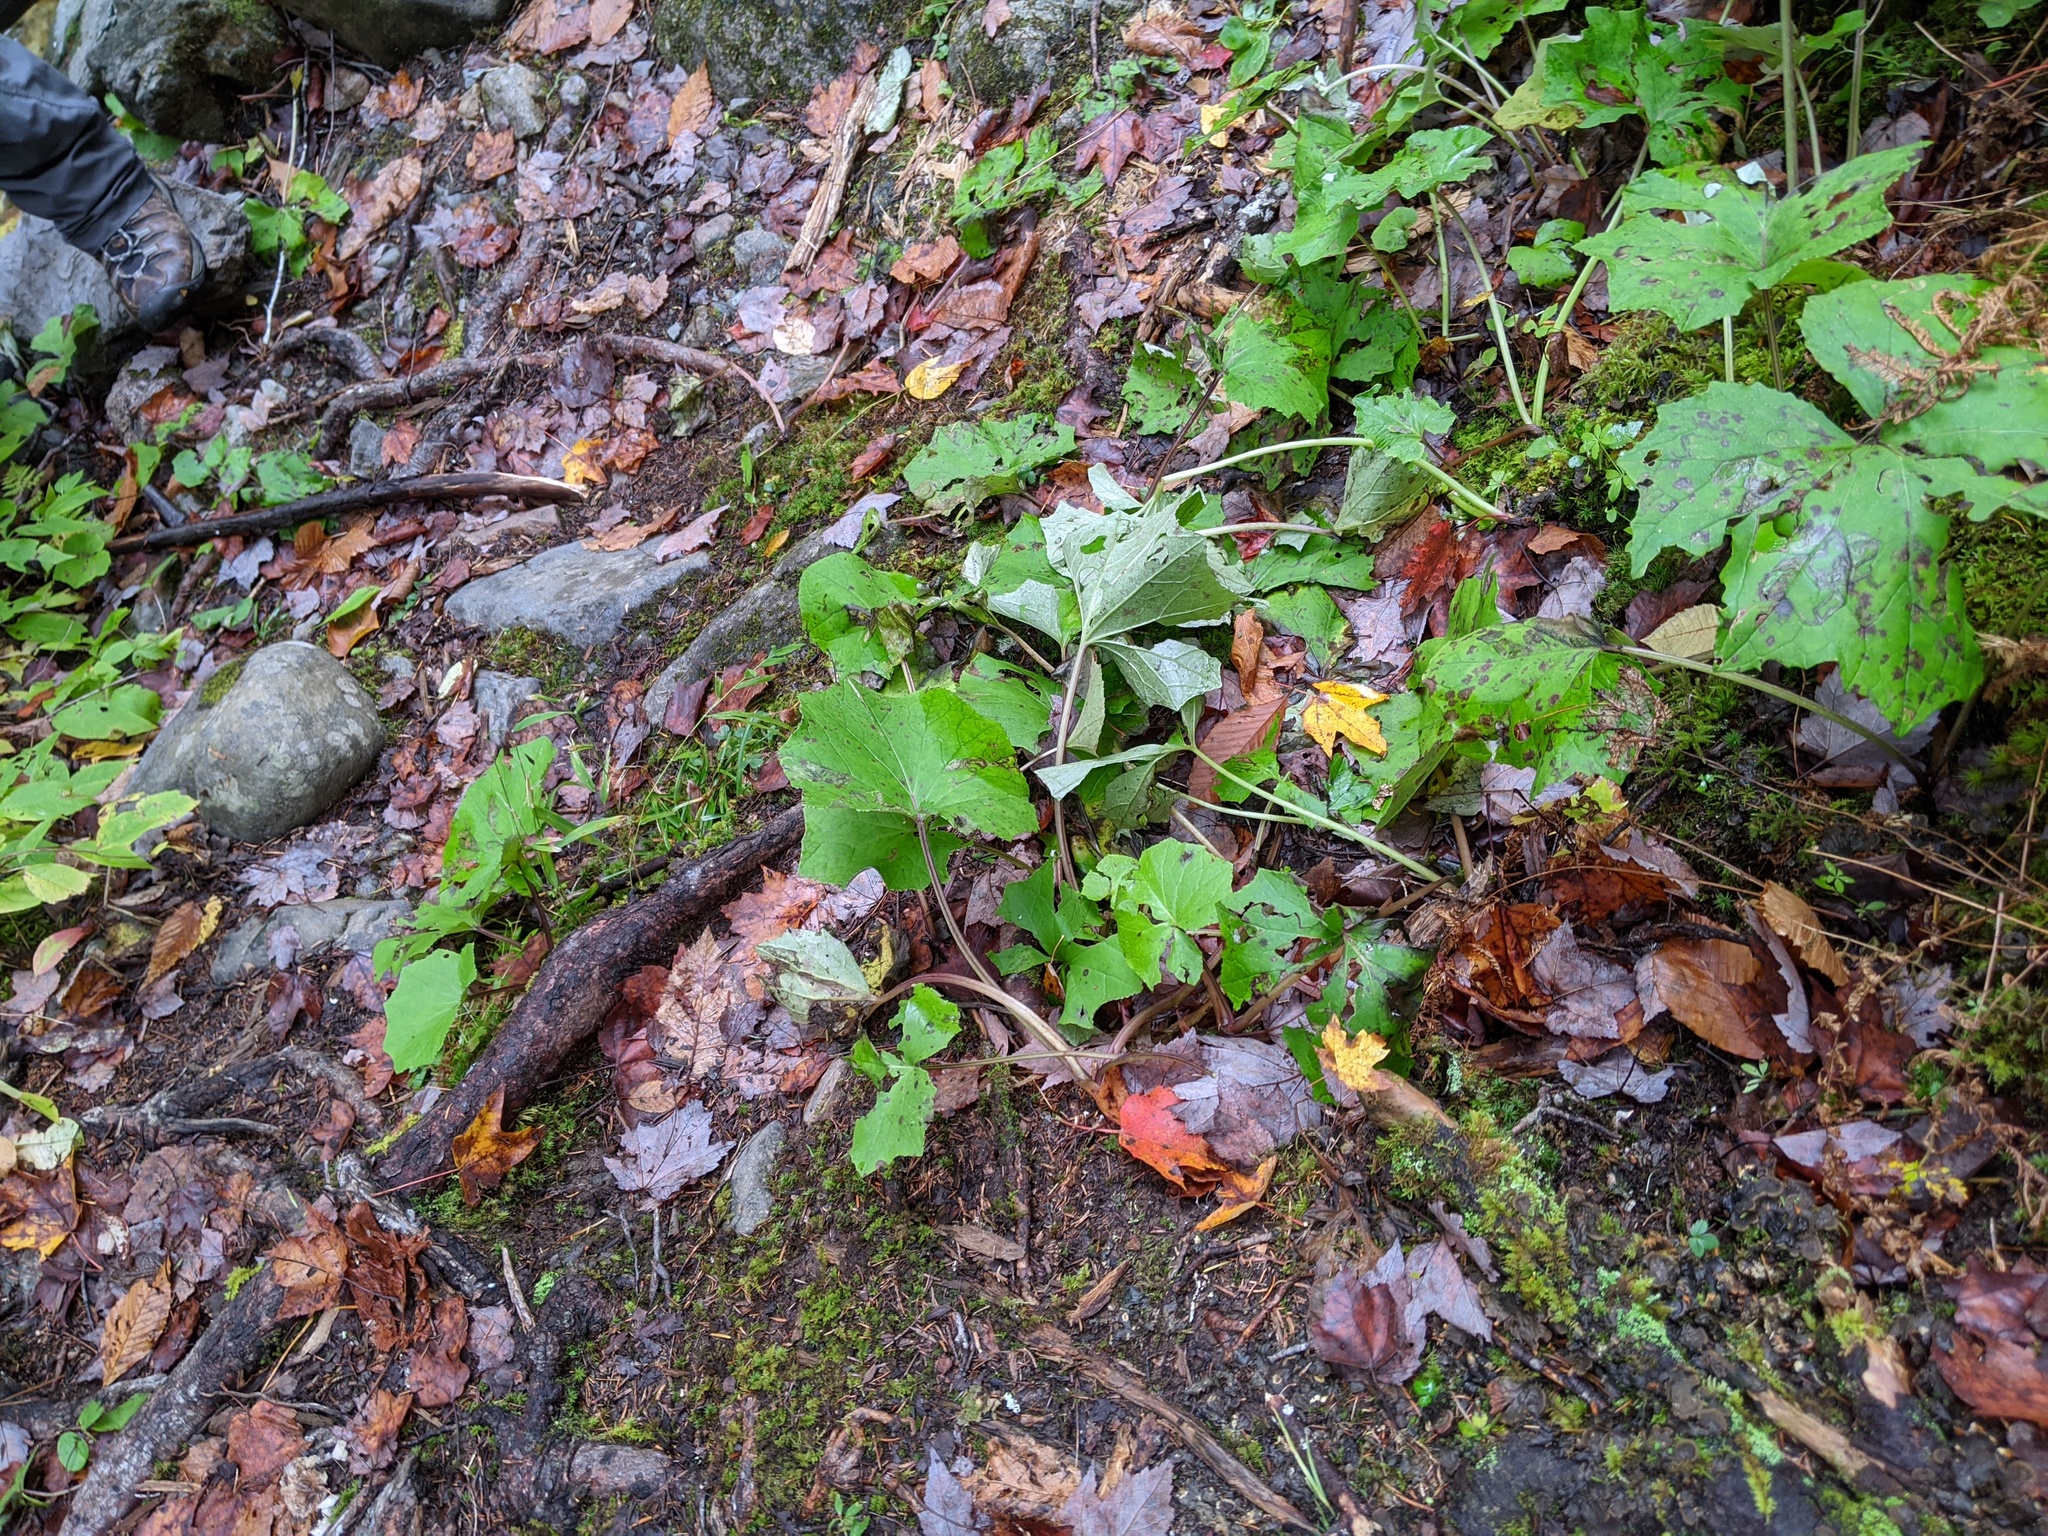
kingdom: Plantae
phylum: Tracheophyta
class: Magnoliopsida
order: Asterales
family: Asteraceae
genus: Tussilago
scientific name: Tussilago farfara
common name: Coltsfoot
